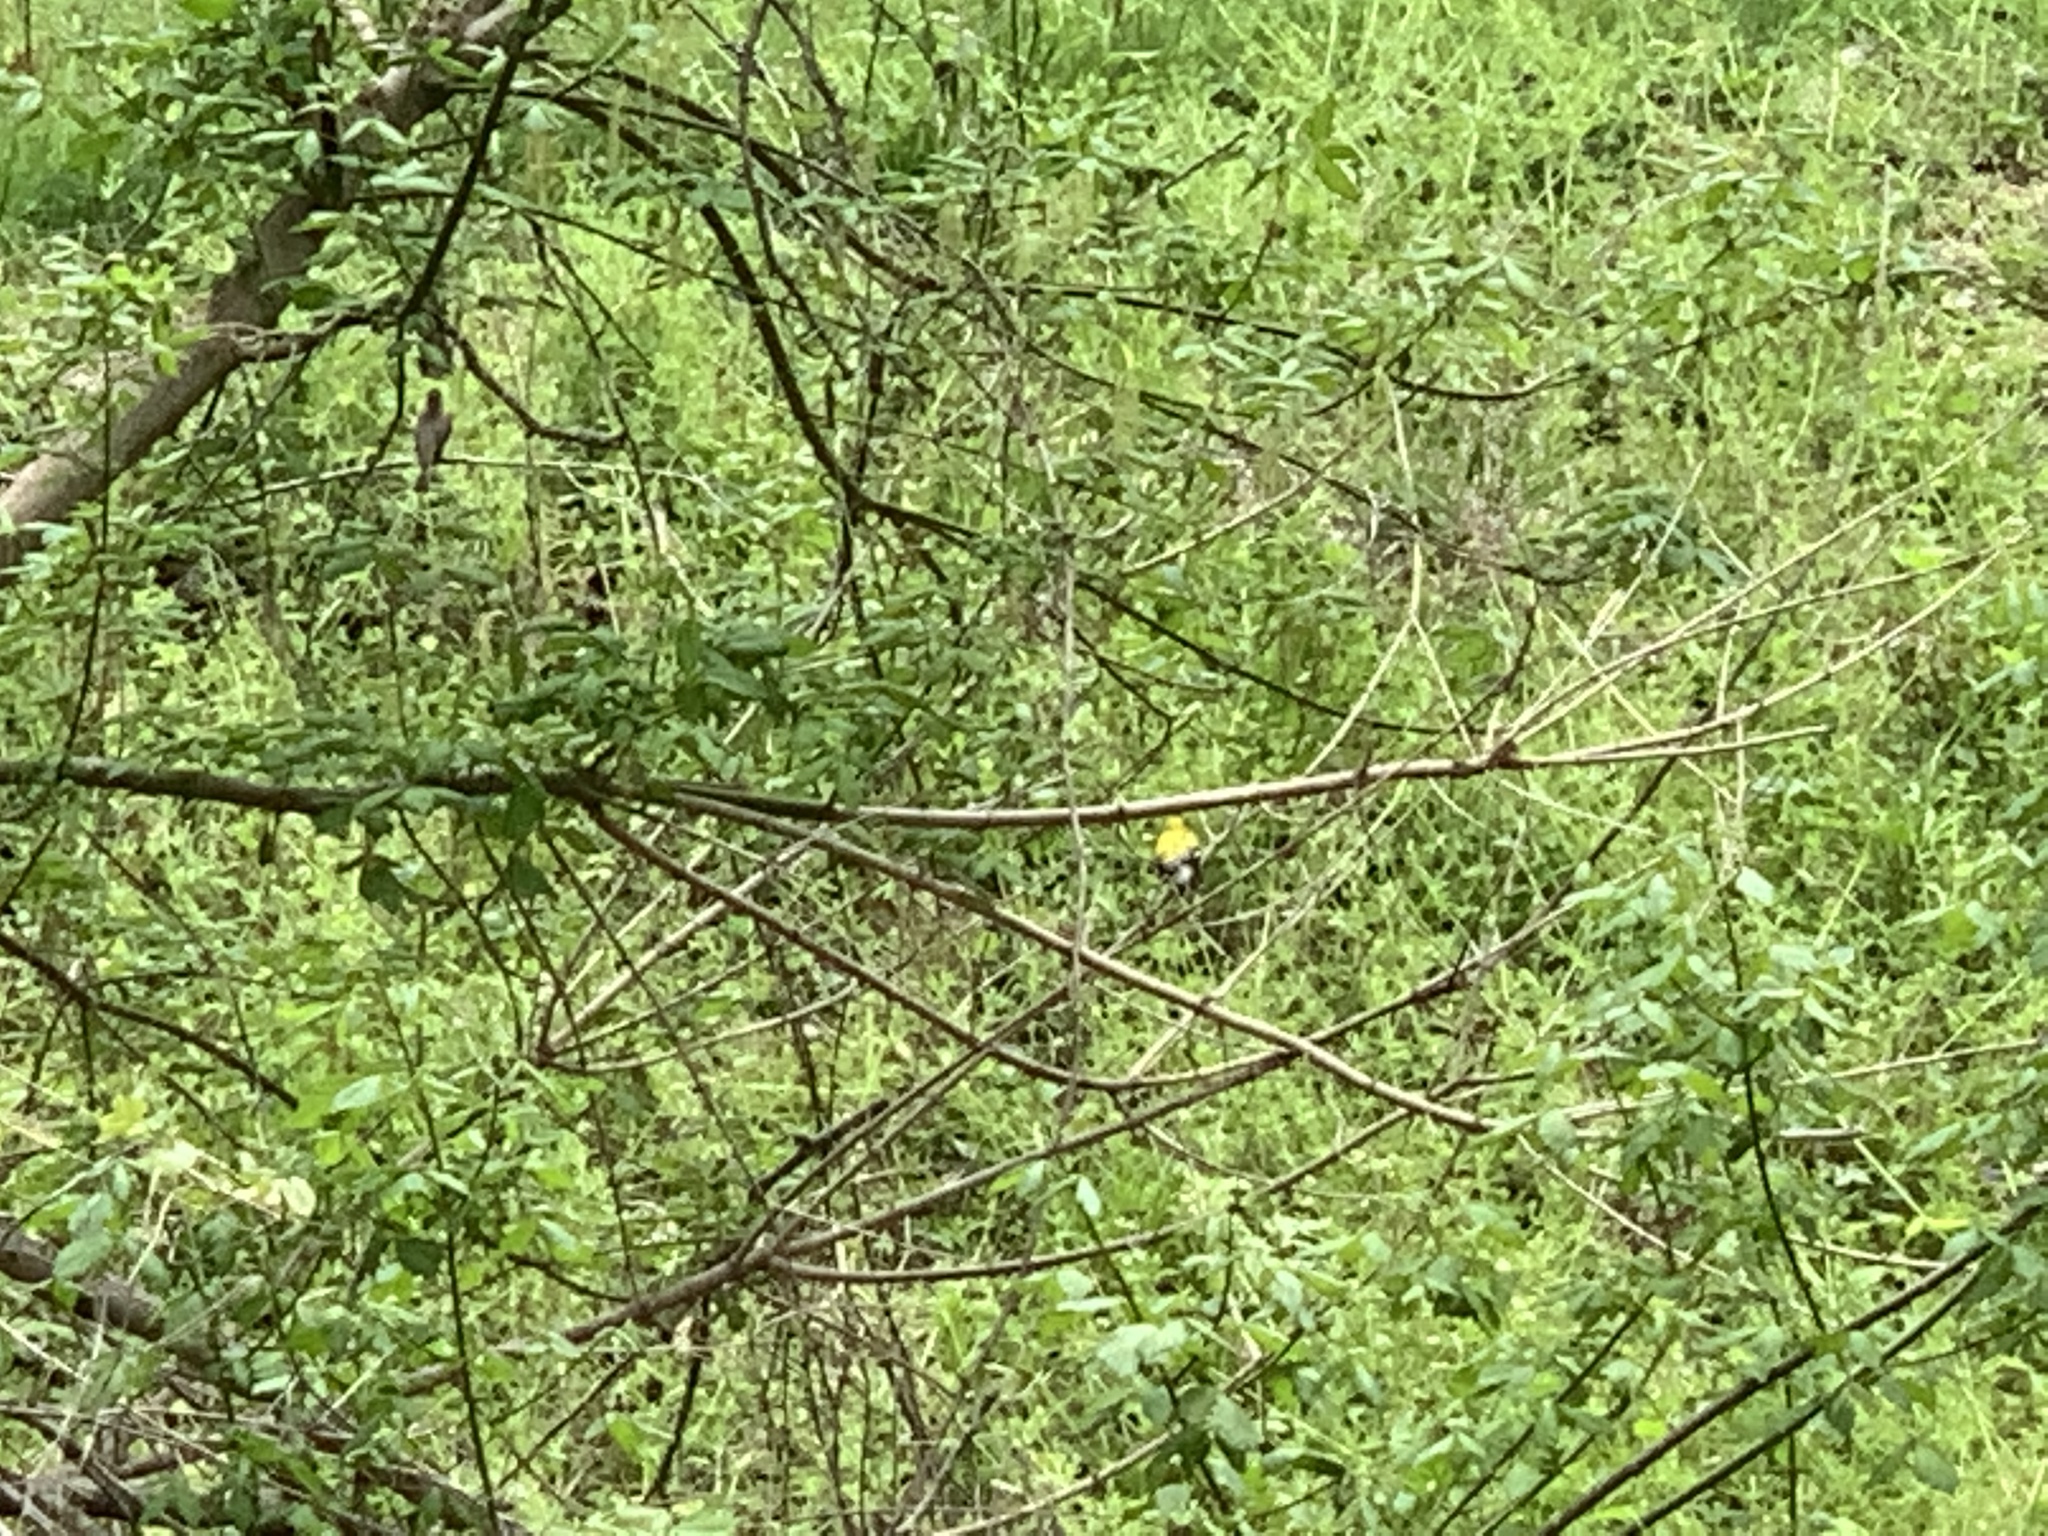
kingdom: Animalia
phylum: Chordata
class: Aves
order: Passeriformes
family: Fringillidae
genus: Spinus
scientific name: Spinus tristis
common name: American goldfinch
